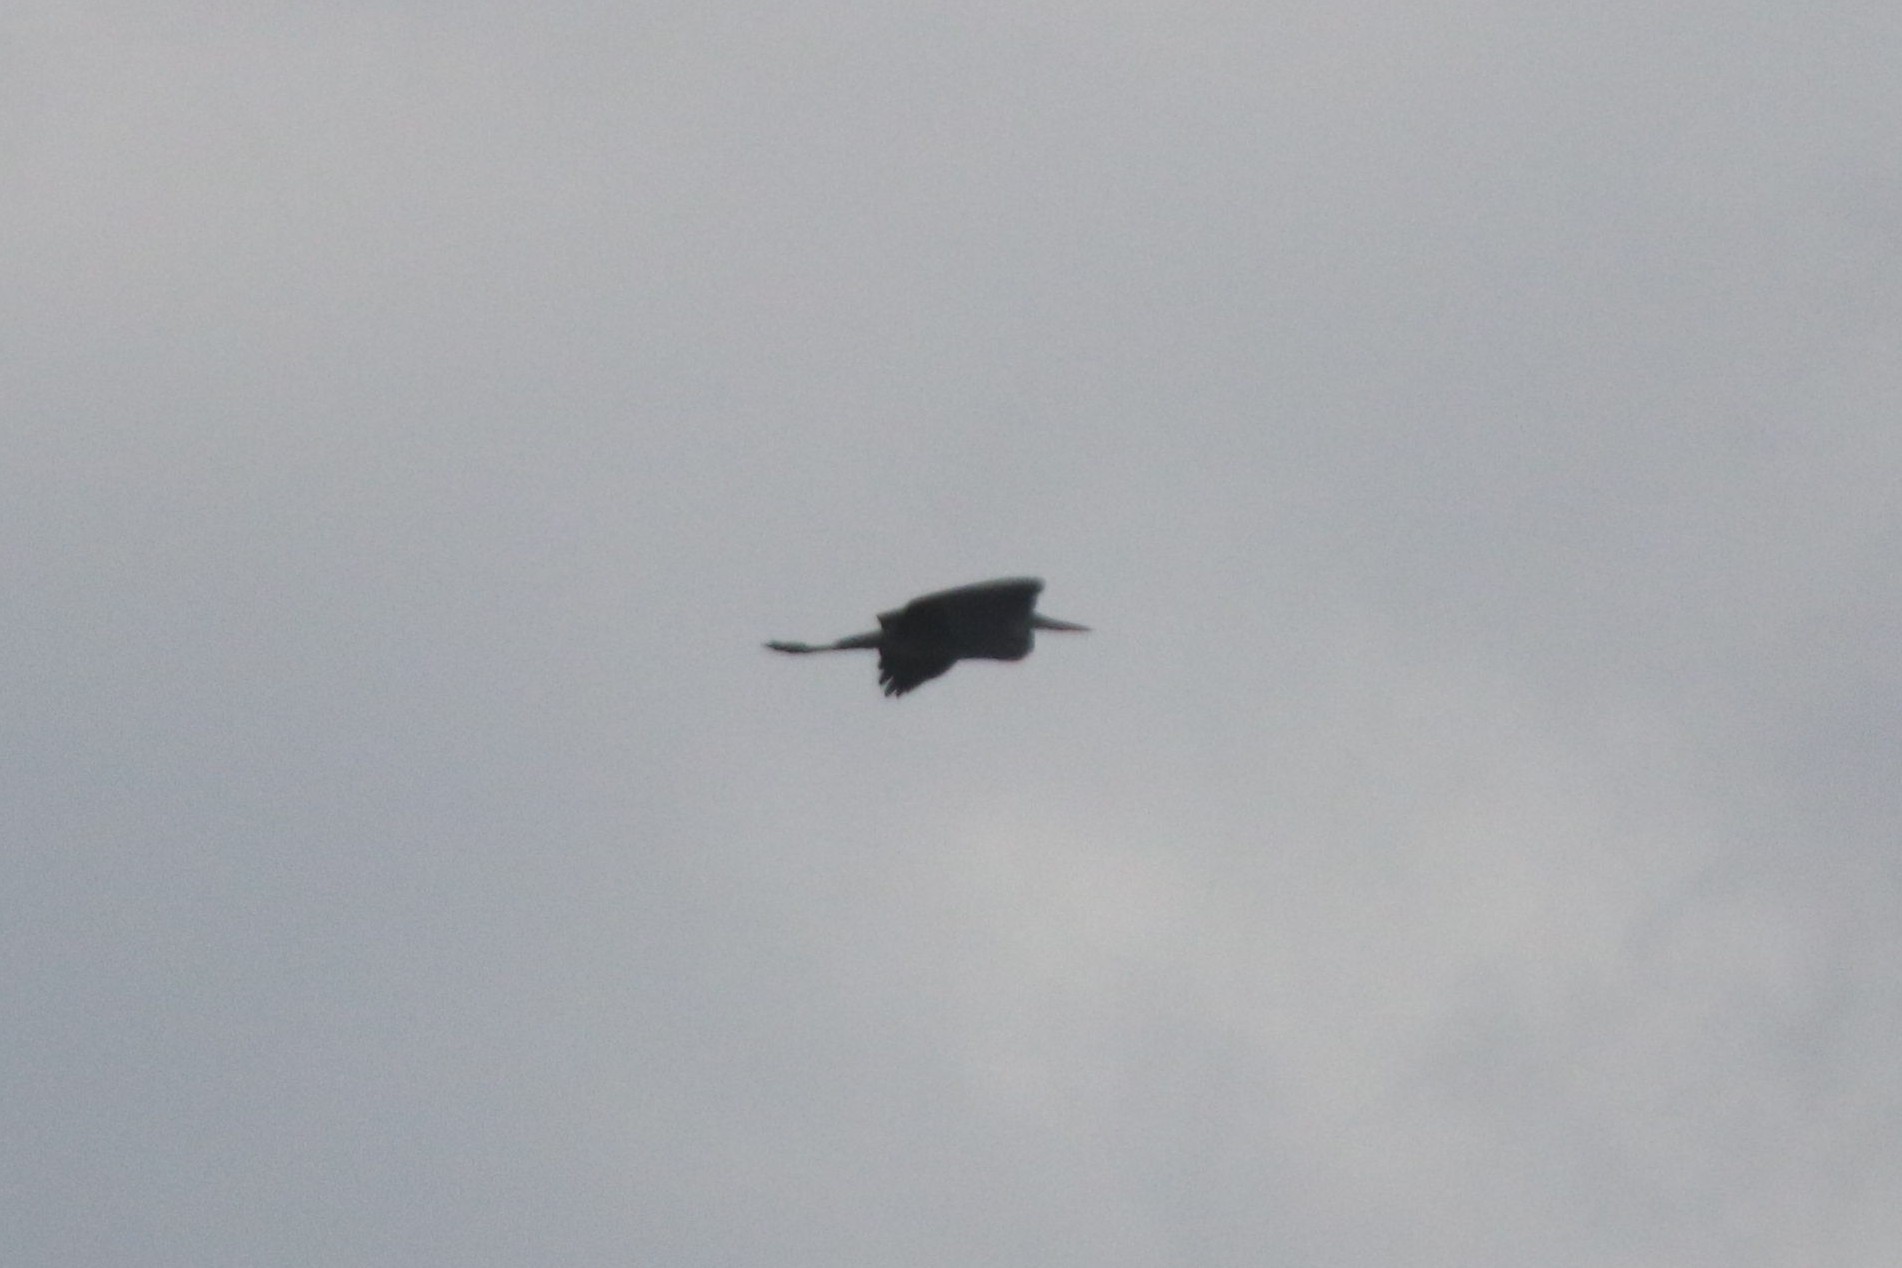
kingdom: Animalia
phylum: Chordata
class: Aves
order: Pelecaniformes
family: Ardeidae
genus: Ardea
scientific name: Ardea cinerea
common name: Grey heron
